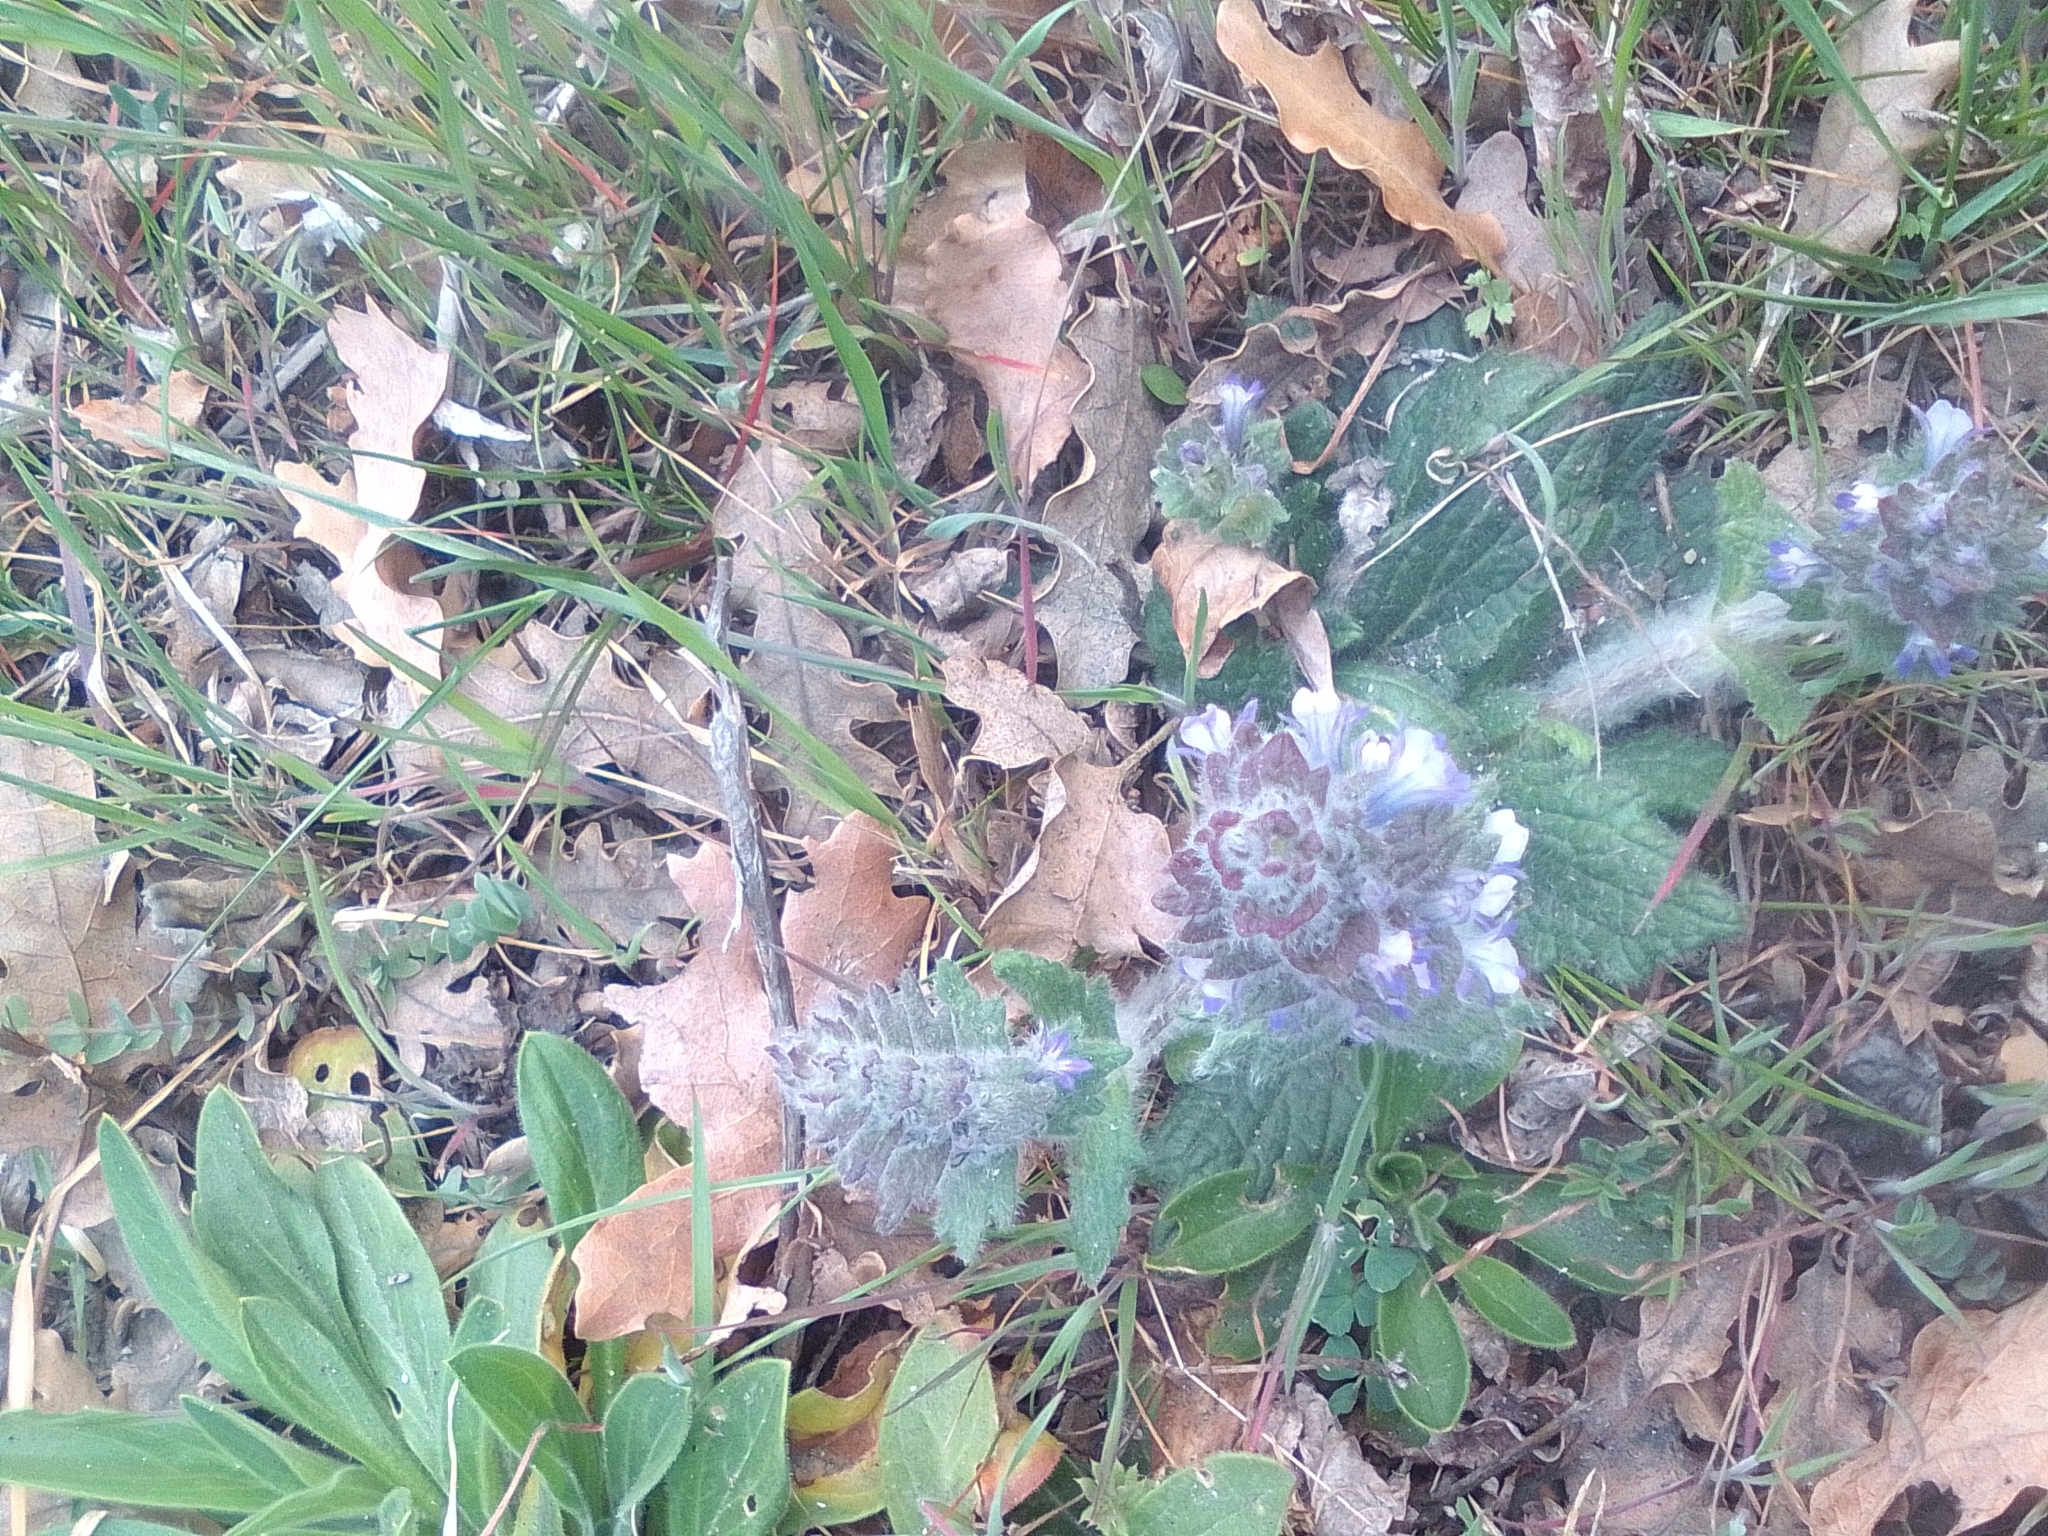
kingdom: Plantae
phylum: Tracheophyta
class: Magnoliopsida
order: Lamiales
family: Lamiaceae
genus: Ajuga
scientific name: Ajuga orientalis
